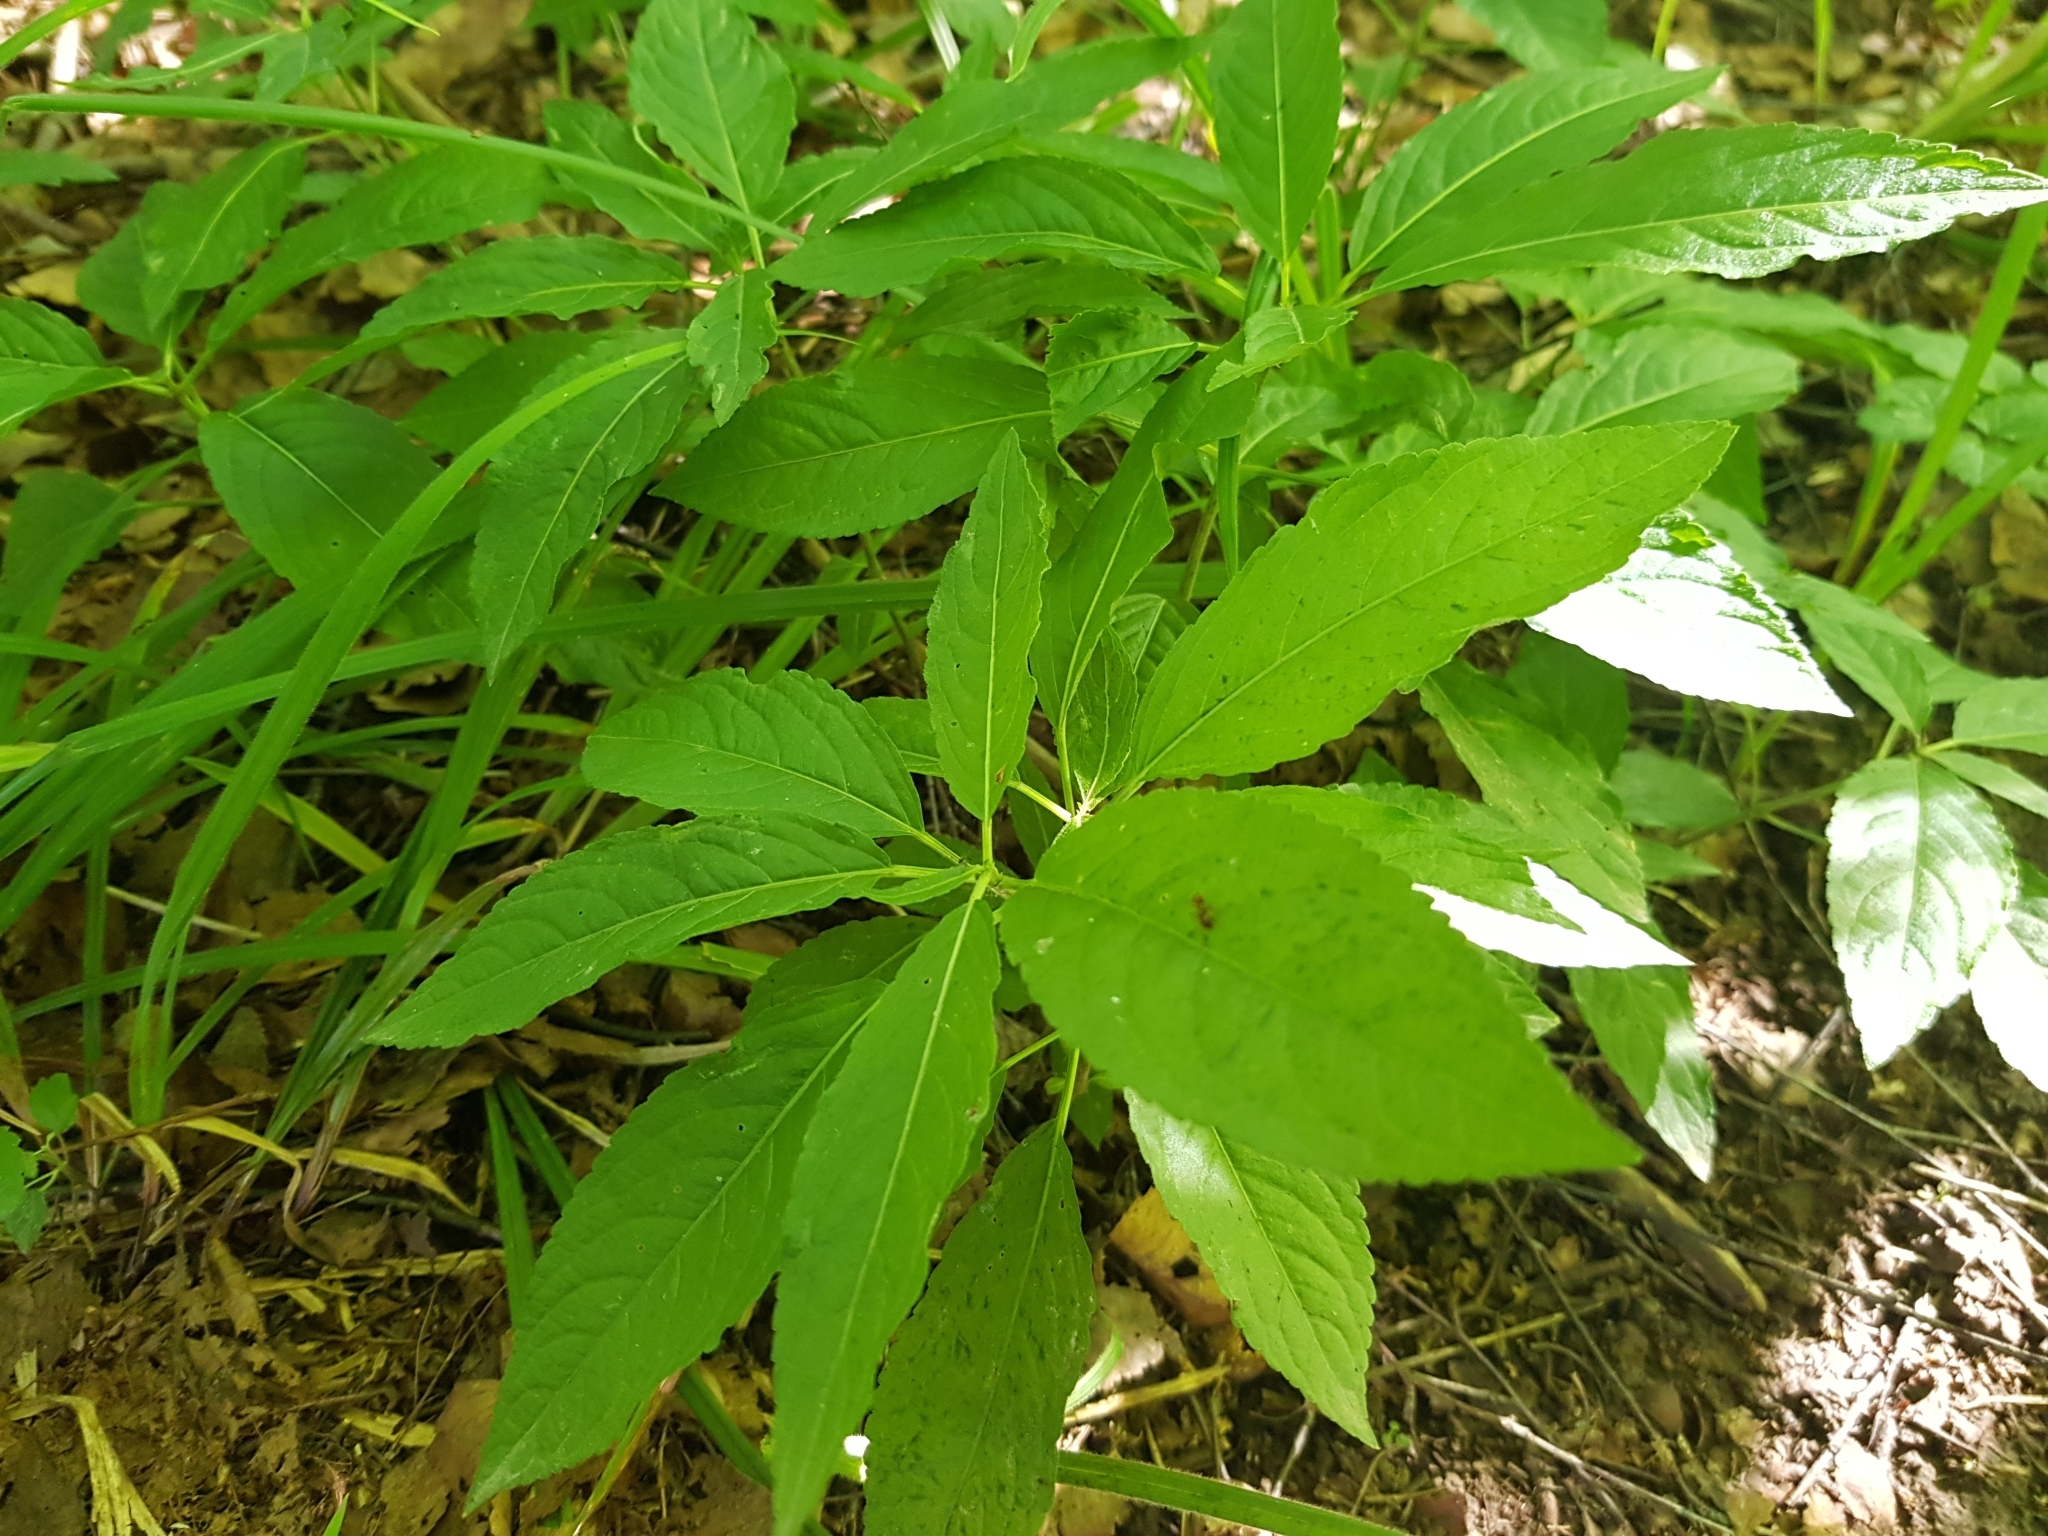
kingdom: Plantae
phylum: Tracheophyta
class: Magnoliopsida
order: Malpighiales
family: Euphorbiaceae
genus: Mercurialis
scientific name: Mercurialis perennis
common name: Dog mercury
